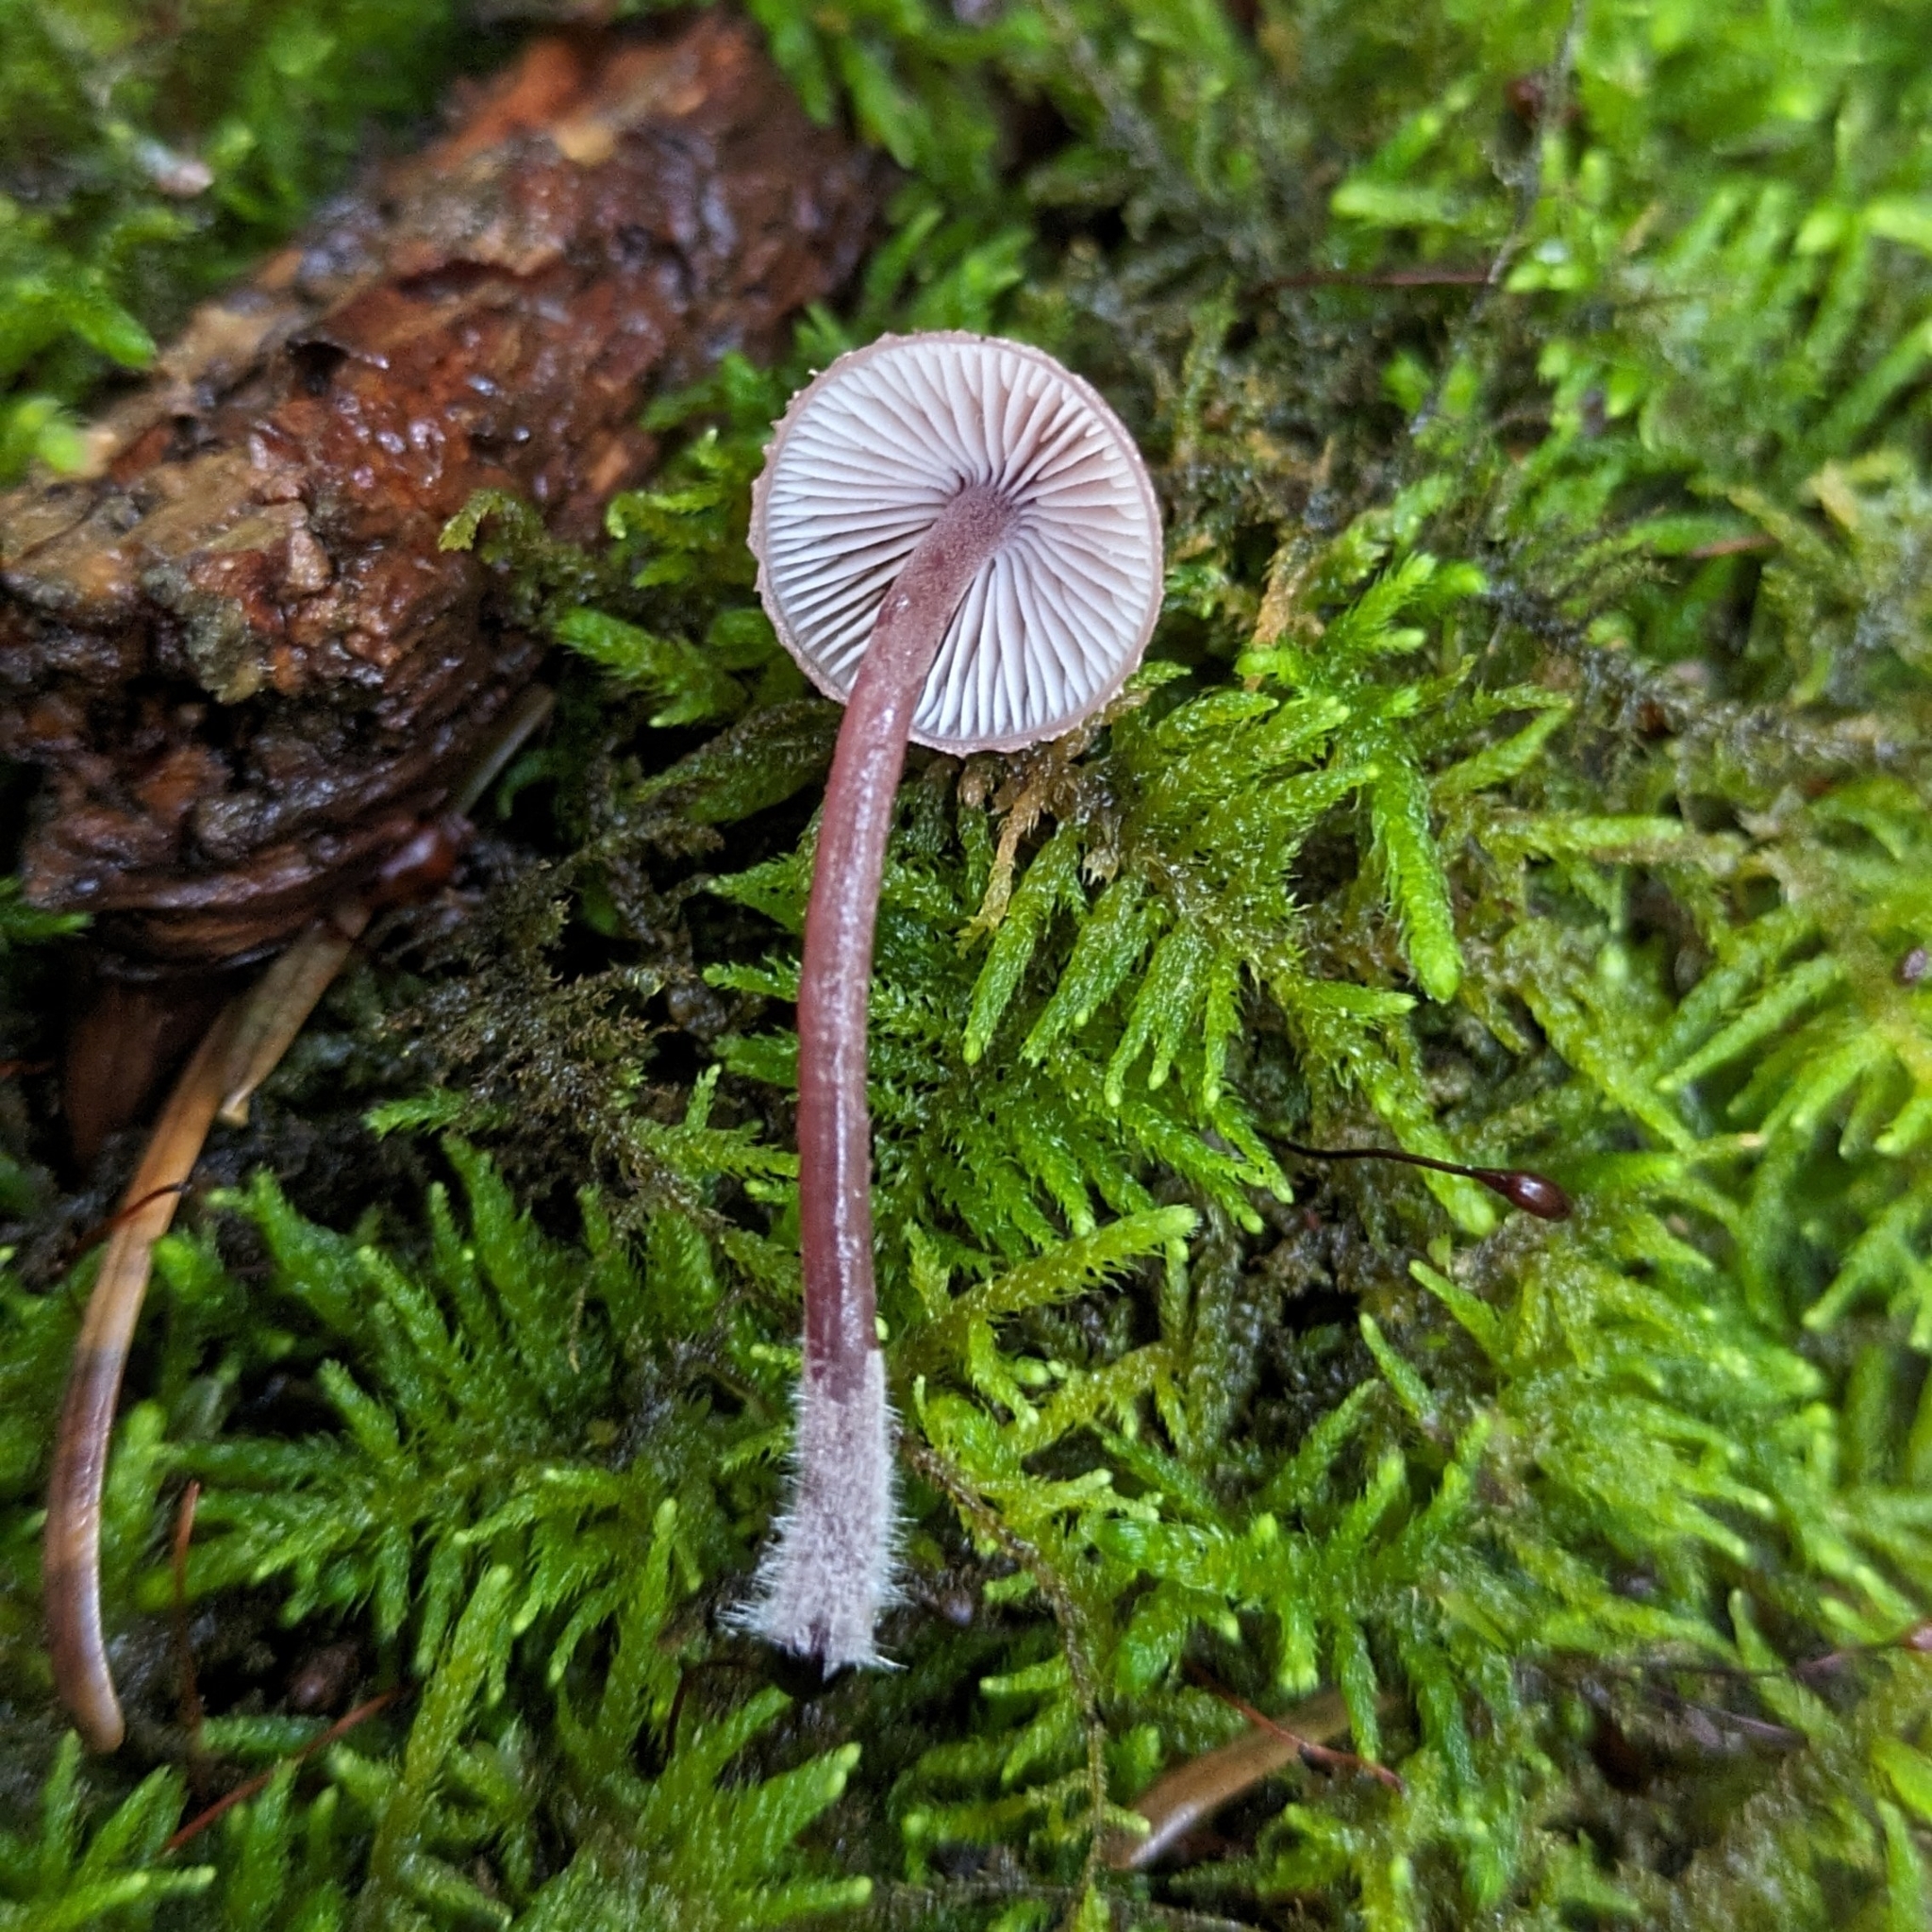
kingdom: Fungi
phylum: Basidiomycota
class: Agaricomycetes
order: Agaricales
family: Mycenaceae
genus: Mycena
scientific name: Mycena haematopus
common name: Burgundydrop bonnet
